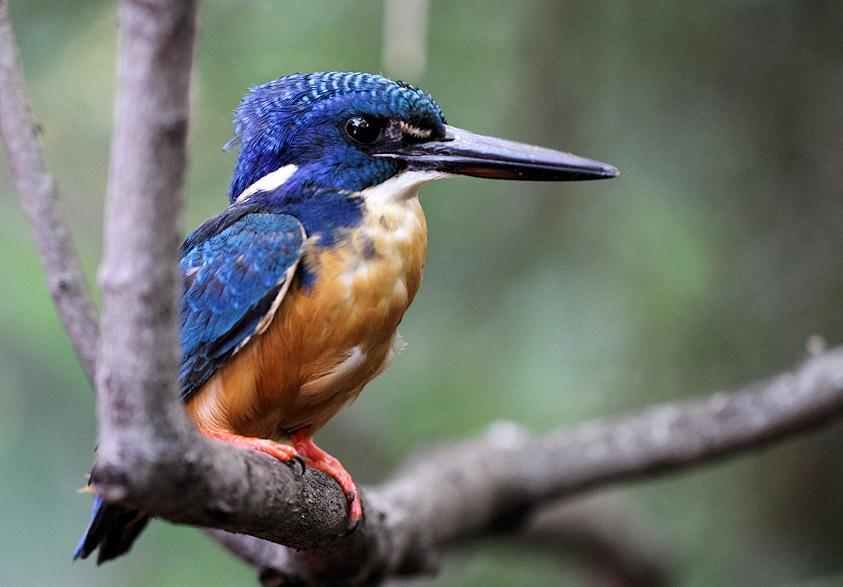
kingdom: Animalia
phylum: Chordata
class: Aves
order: Coraciiformes
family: Alcedinidae
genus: Alcedo
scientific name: Alcedo semitorquata
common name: Half-collared kingfisher
